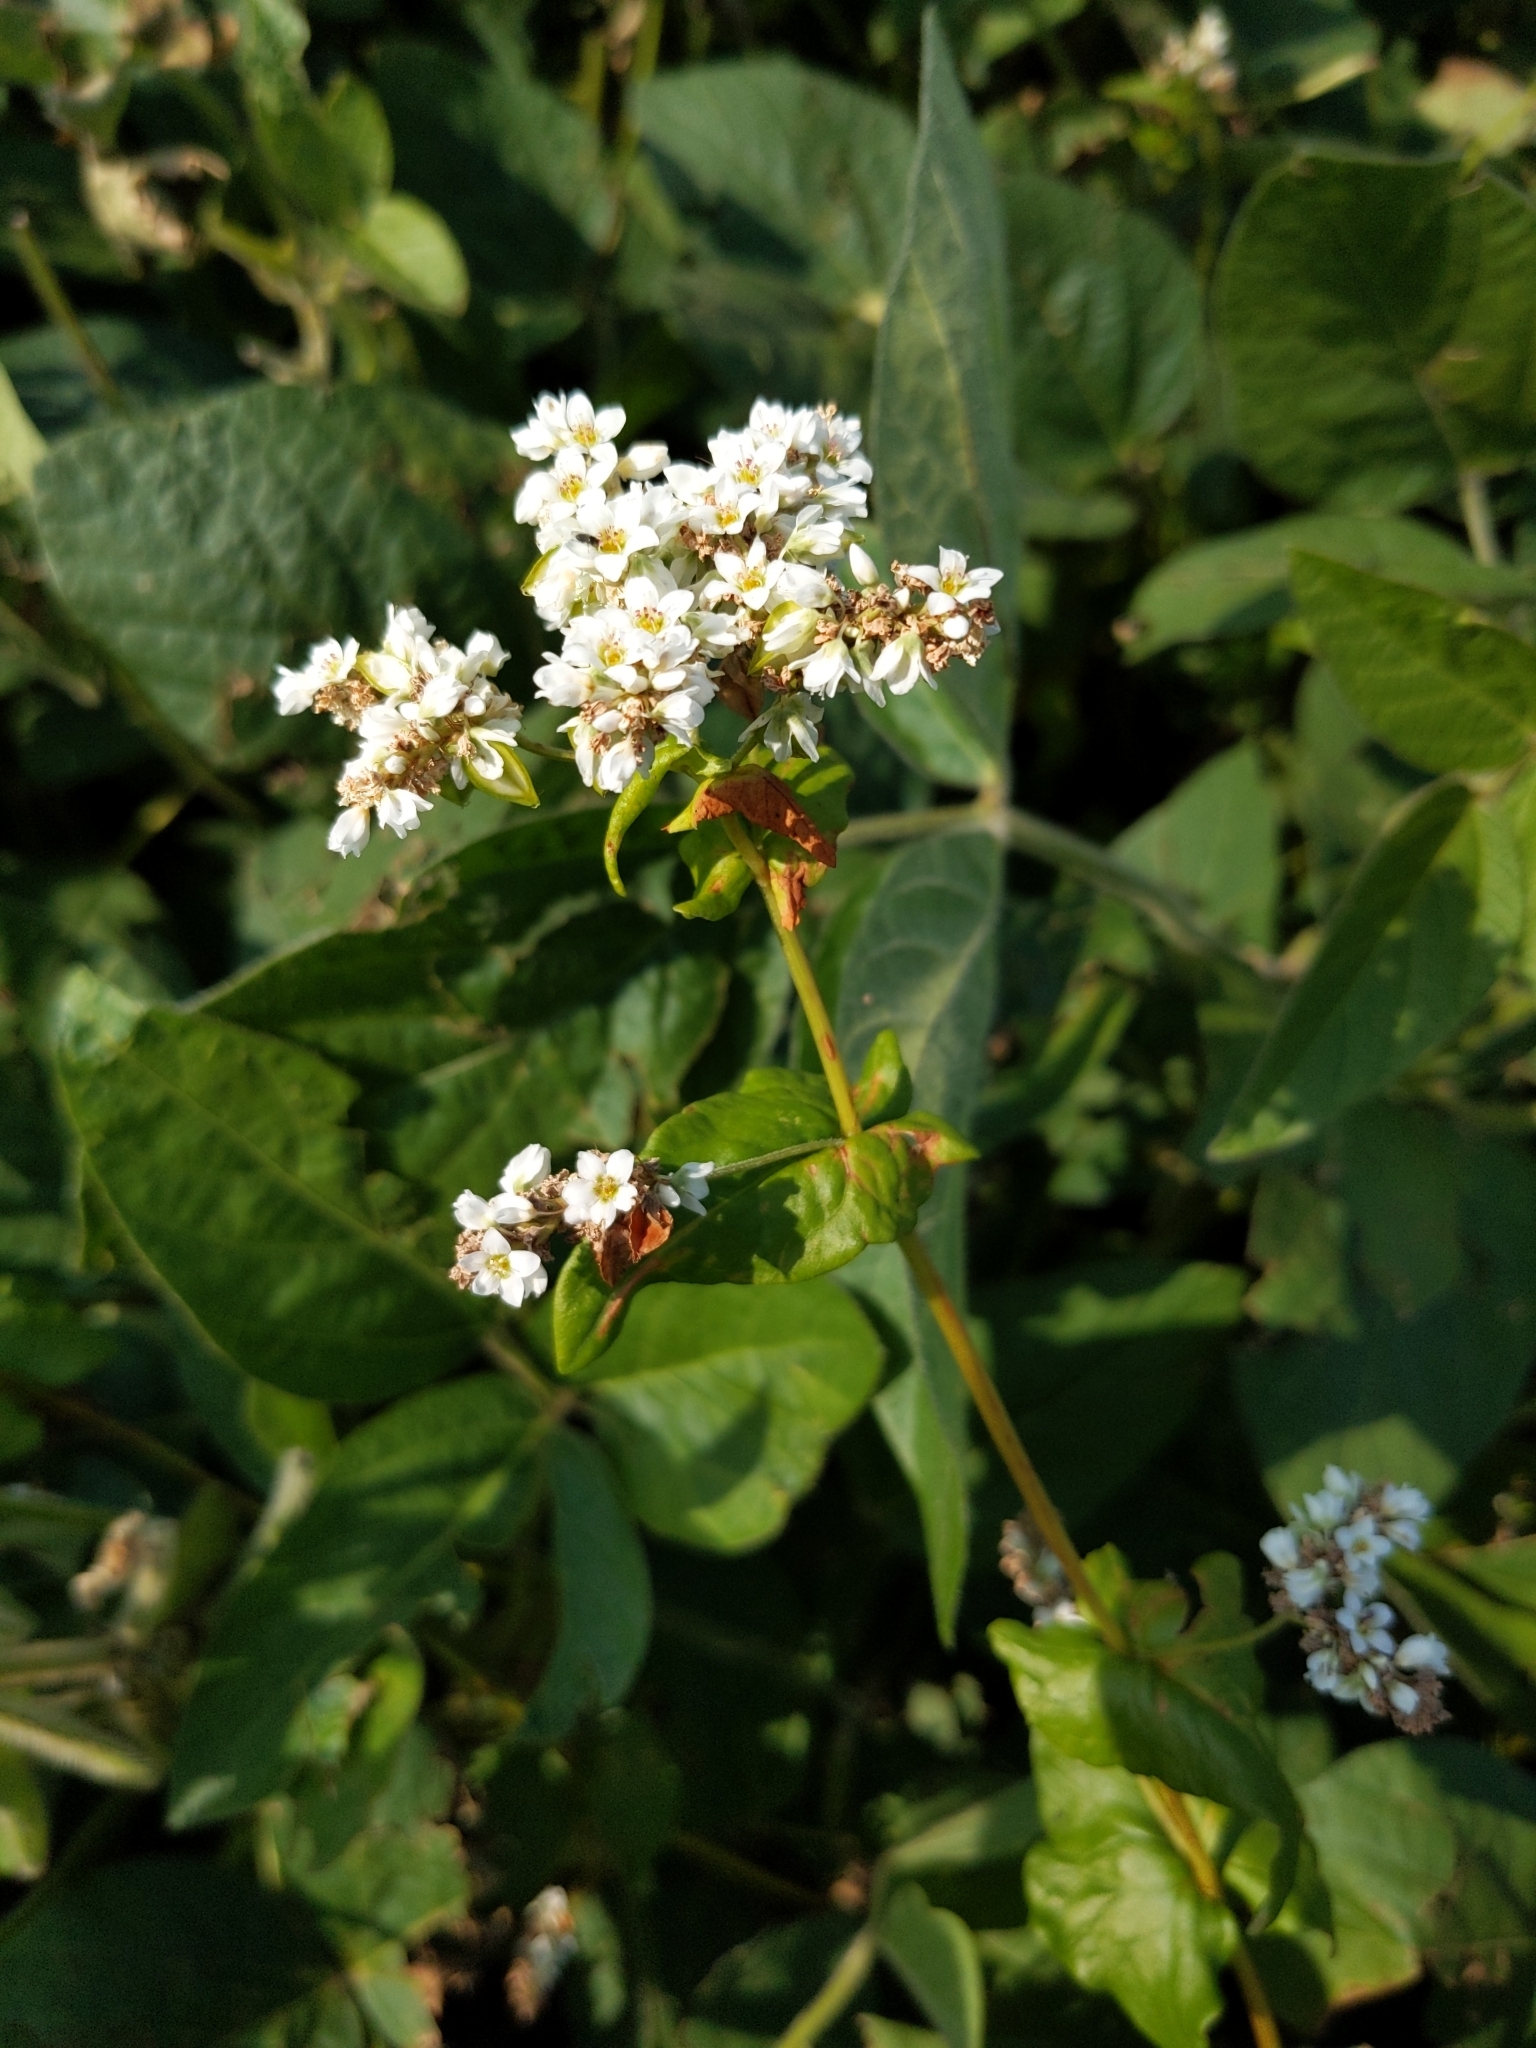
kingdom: Plantae
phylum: Tracheophyta
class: Magnoliopsida
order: Caryophyllales
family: Polygonaceae
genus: Fagopyrum
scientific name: Fagopyrum esculentum
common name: Buckwheat
